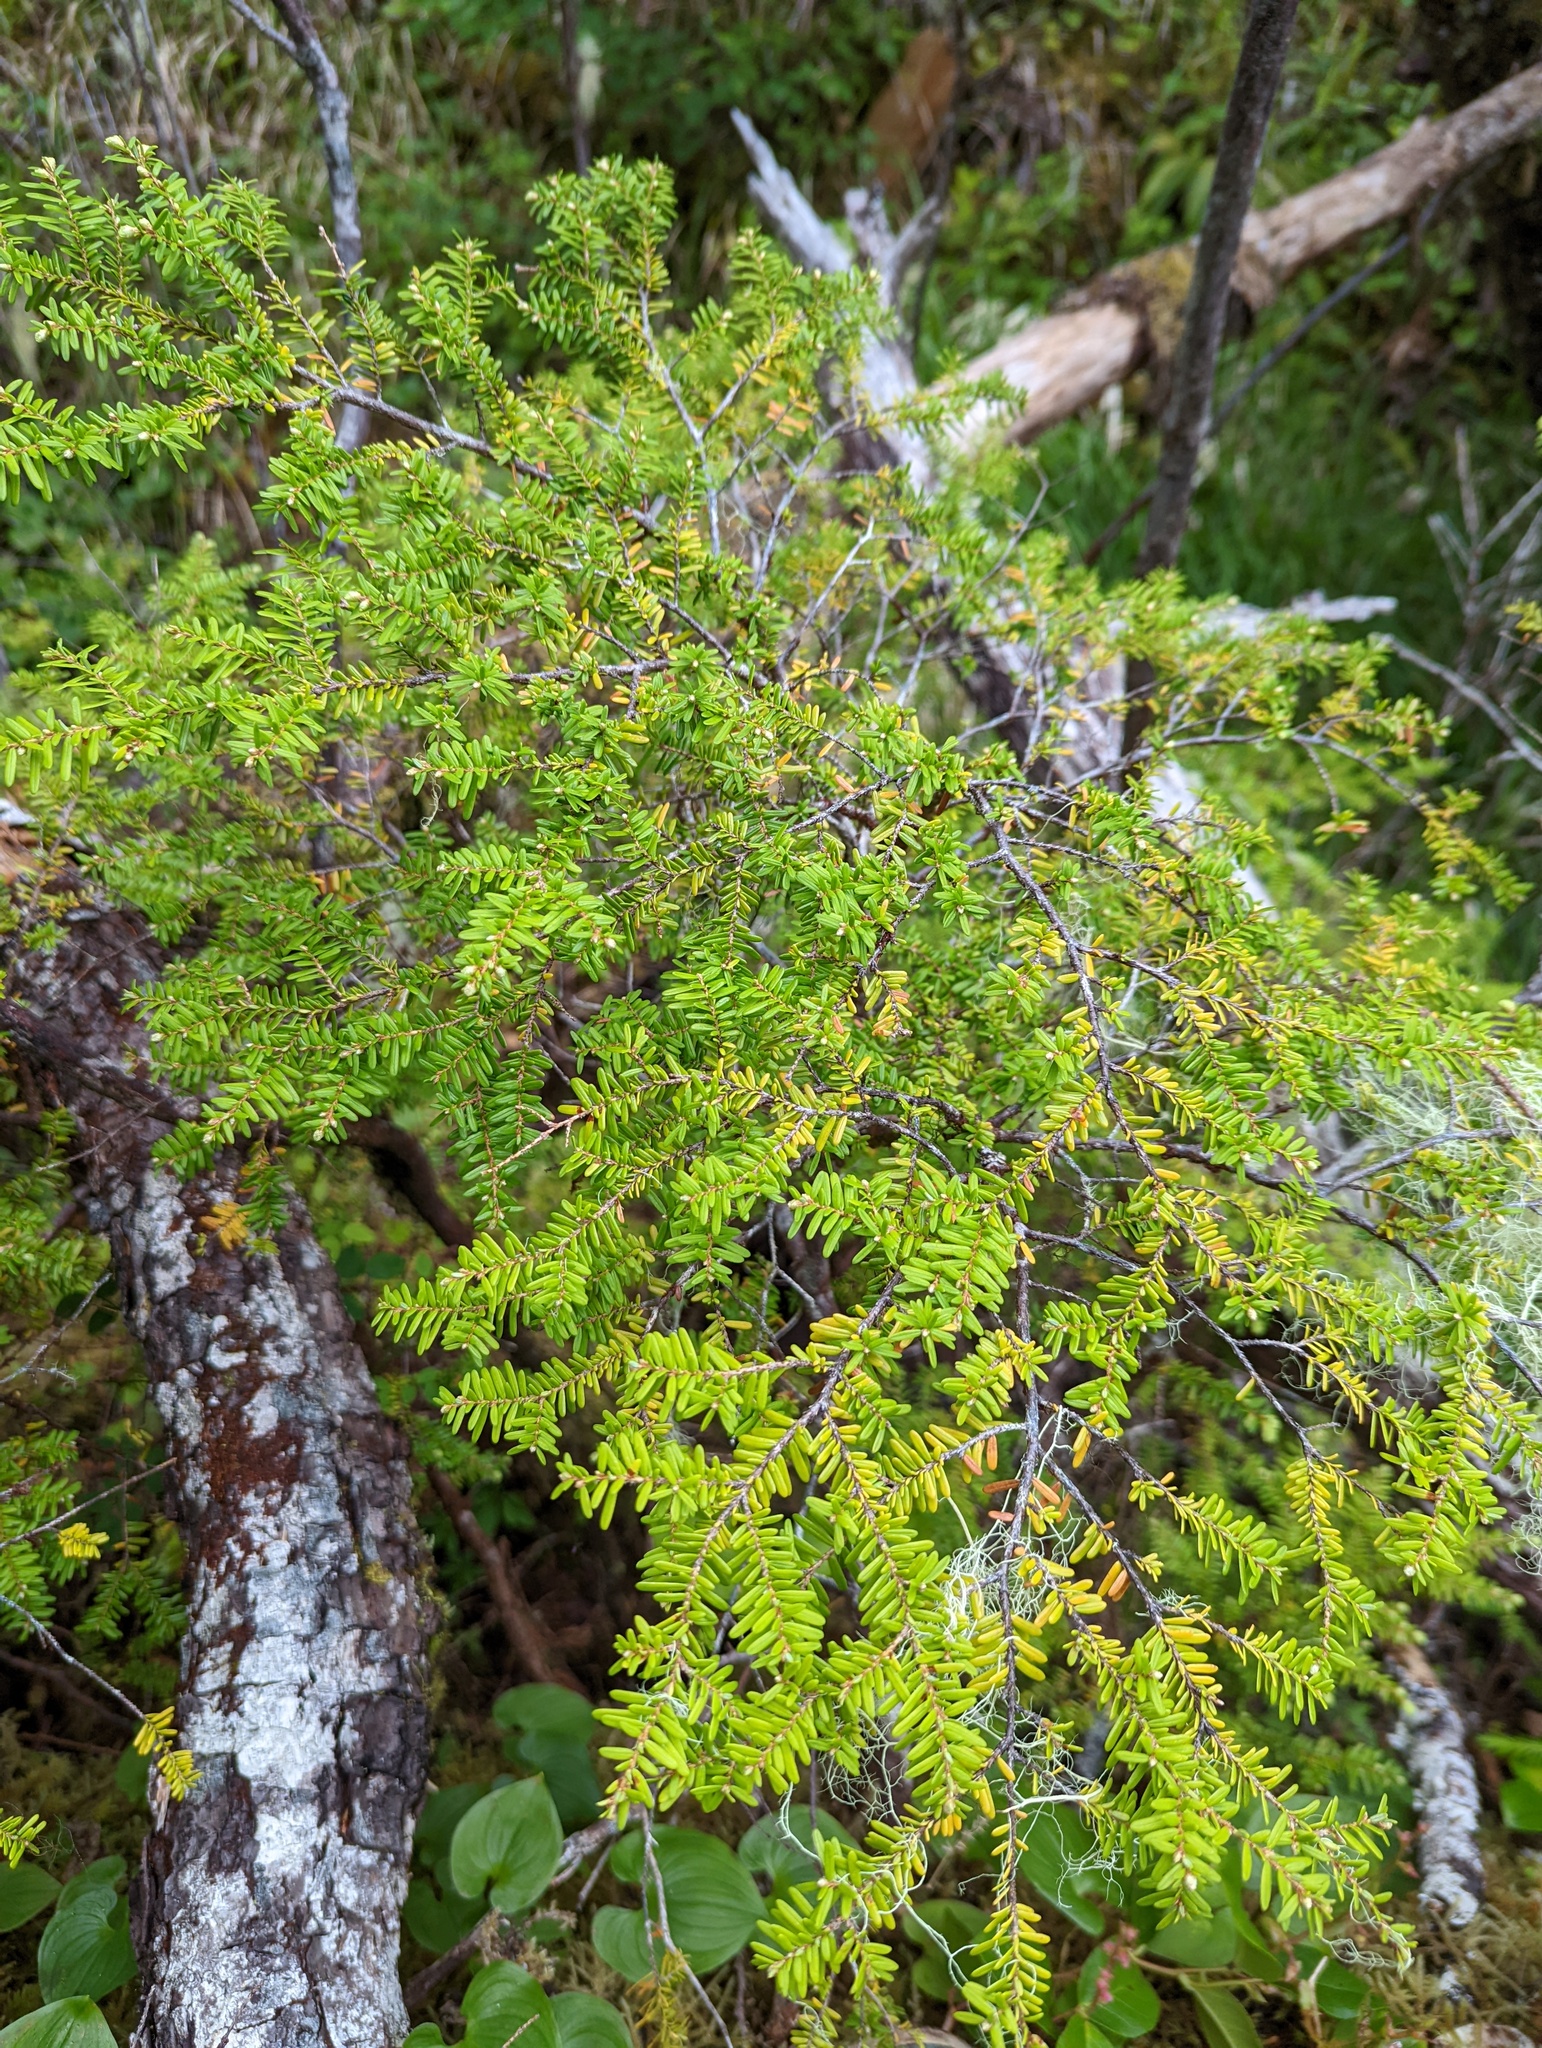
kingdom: Plantae
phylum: Tracheophyta
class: Pinopsida
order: Pinales
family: Pinaceae
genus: Tsuga
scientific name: Tsuga heterophylla
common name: Western hemlock
